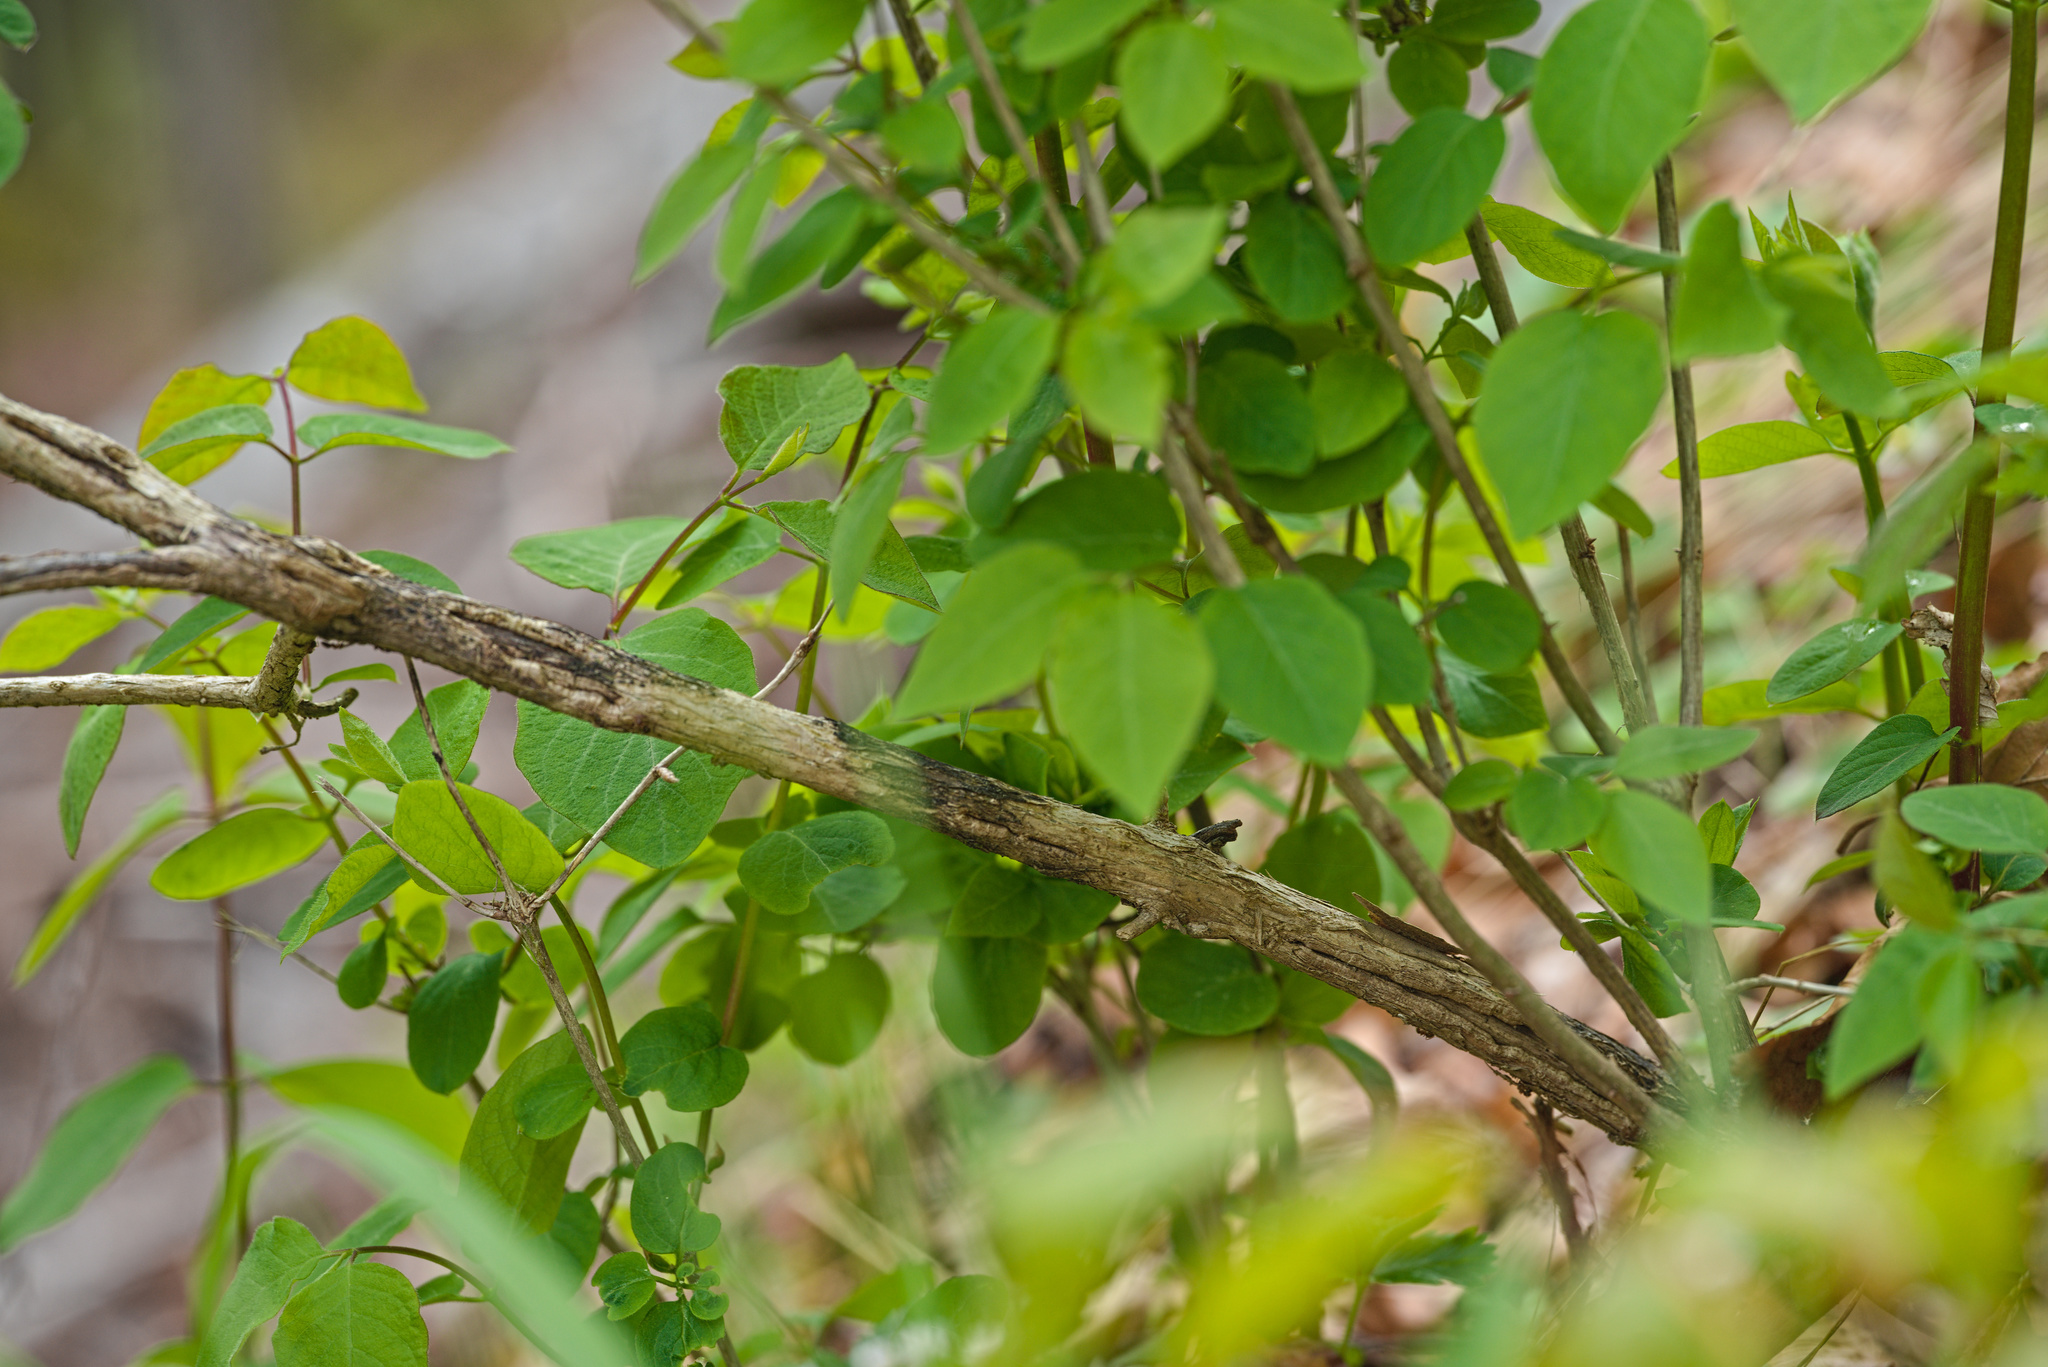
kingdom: Plantae
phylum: Tracheophyta
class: Magnoliopsida
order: Dipsacales
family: Caprifoliaceae
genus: Lonicera
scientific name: Lonicera xylosteum
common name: Fly honeysuckle
